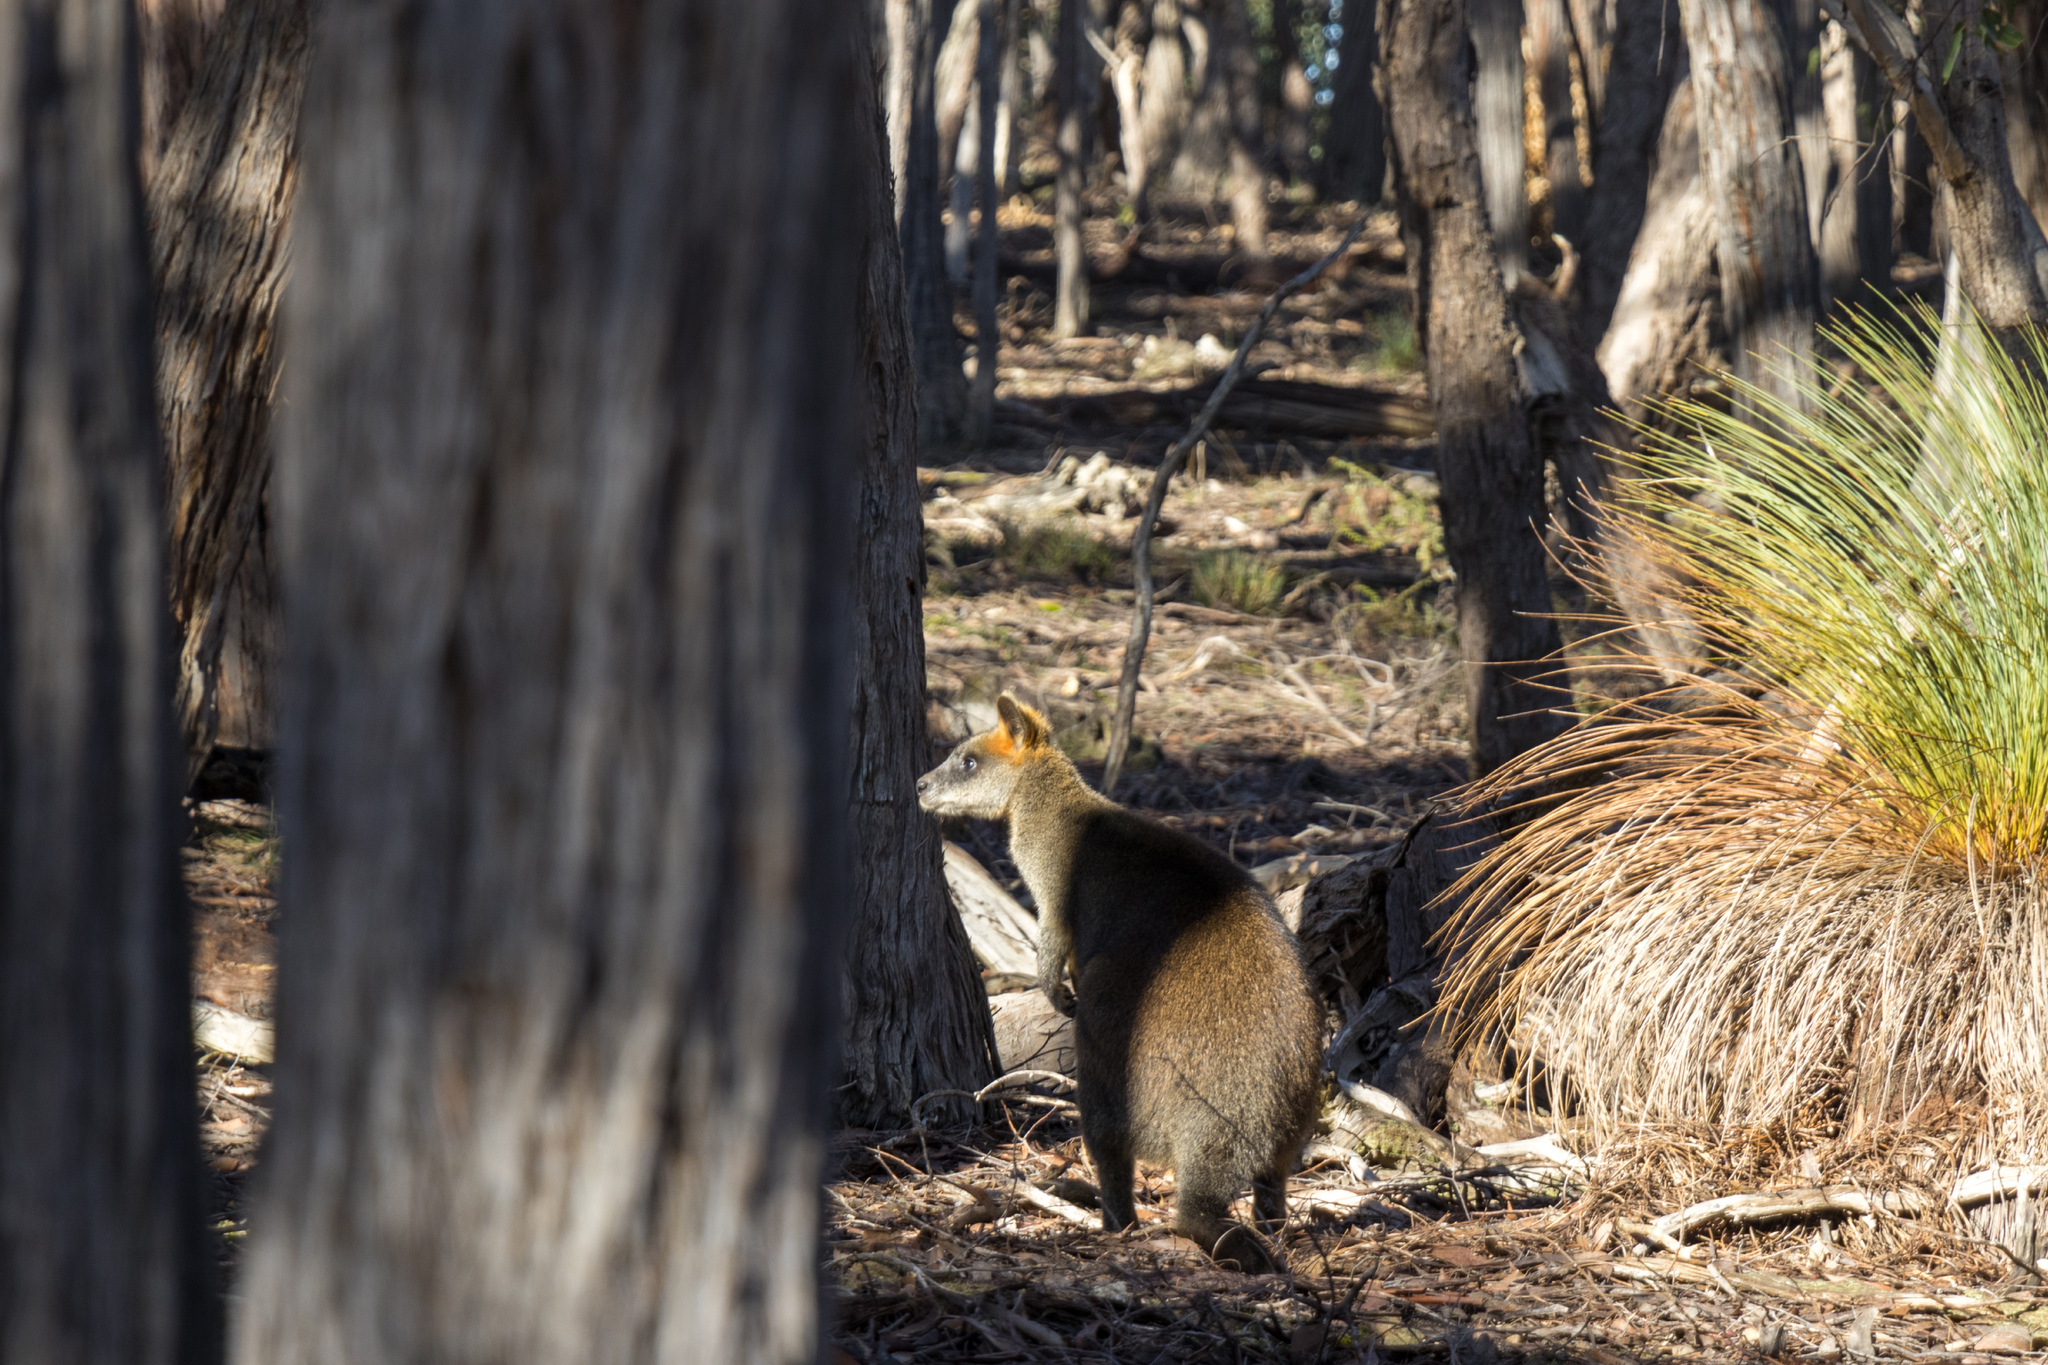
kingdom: Animalia
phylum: Chordata
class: Mammalia
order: Diprotodontia
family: Macropodidae
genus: Wallabia
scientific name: Wallabia bicolor
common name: Swamp wallaby
